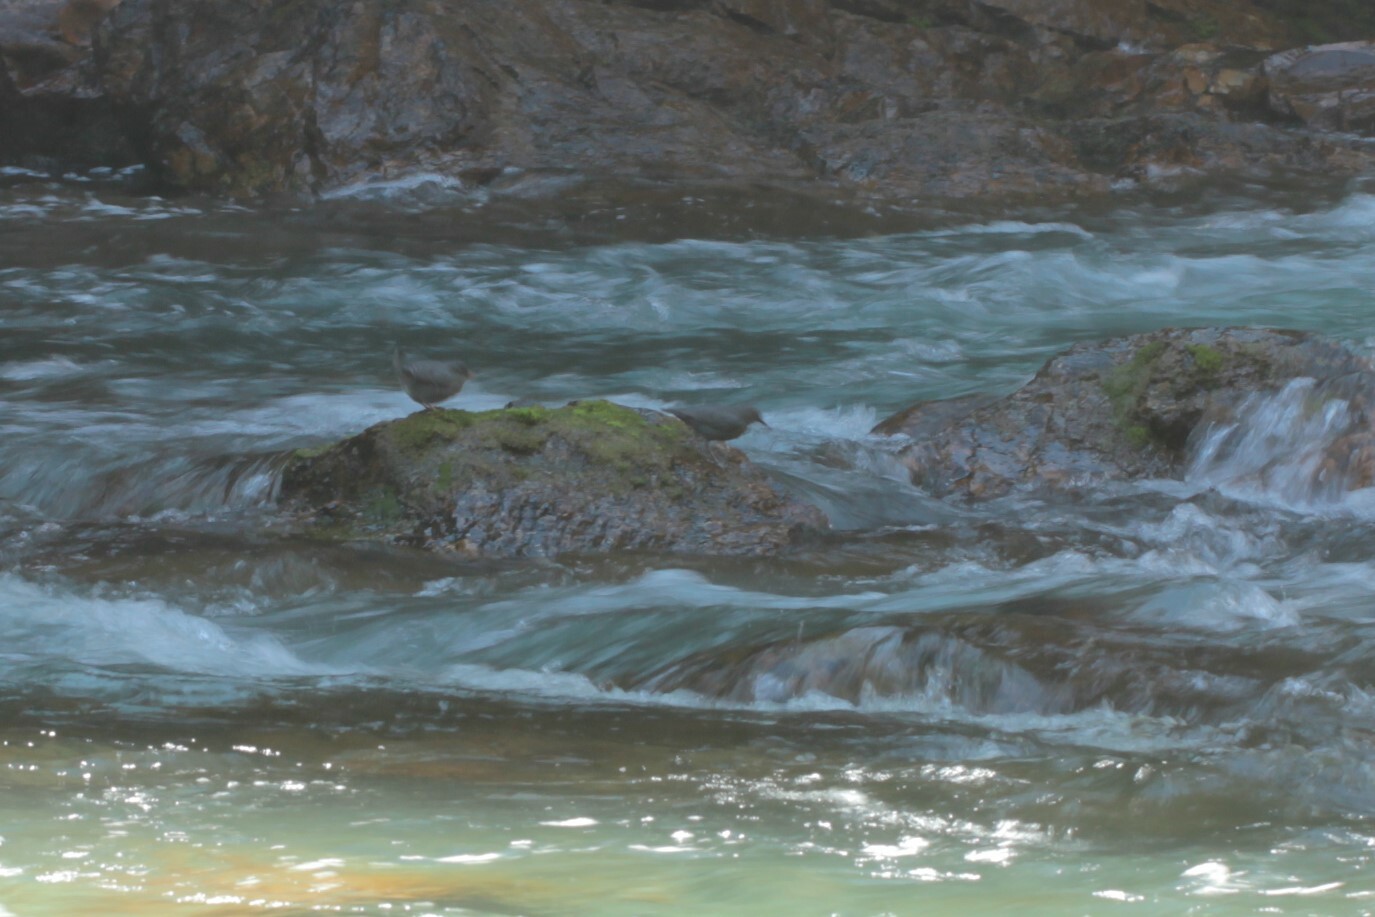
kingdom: Animalia
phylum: Chordata
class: Aves
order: Passeriformes
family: Cinclidae
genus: Cinclus
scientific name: Cinclus mexicanus
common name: American dipper
